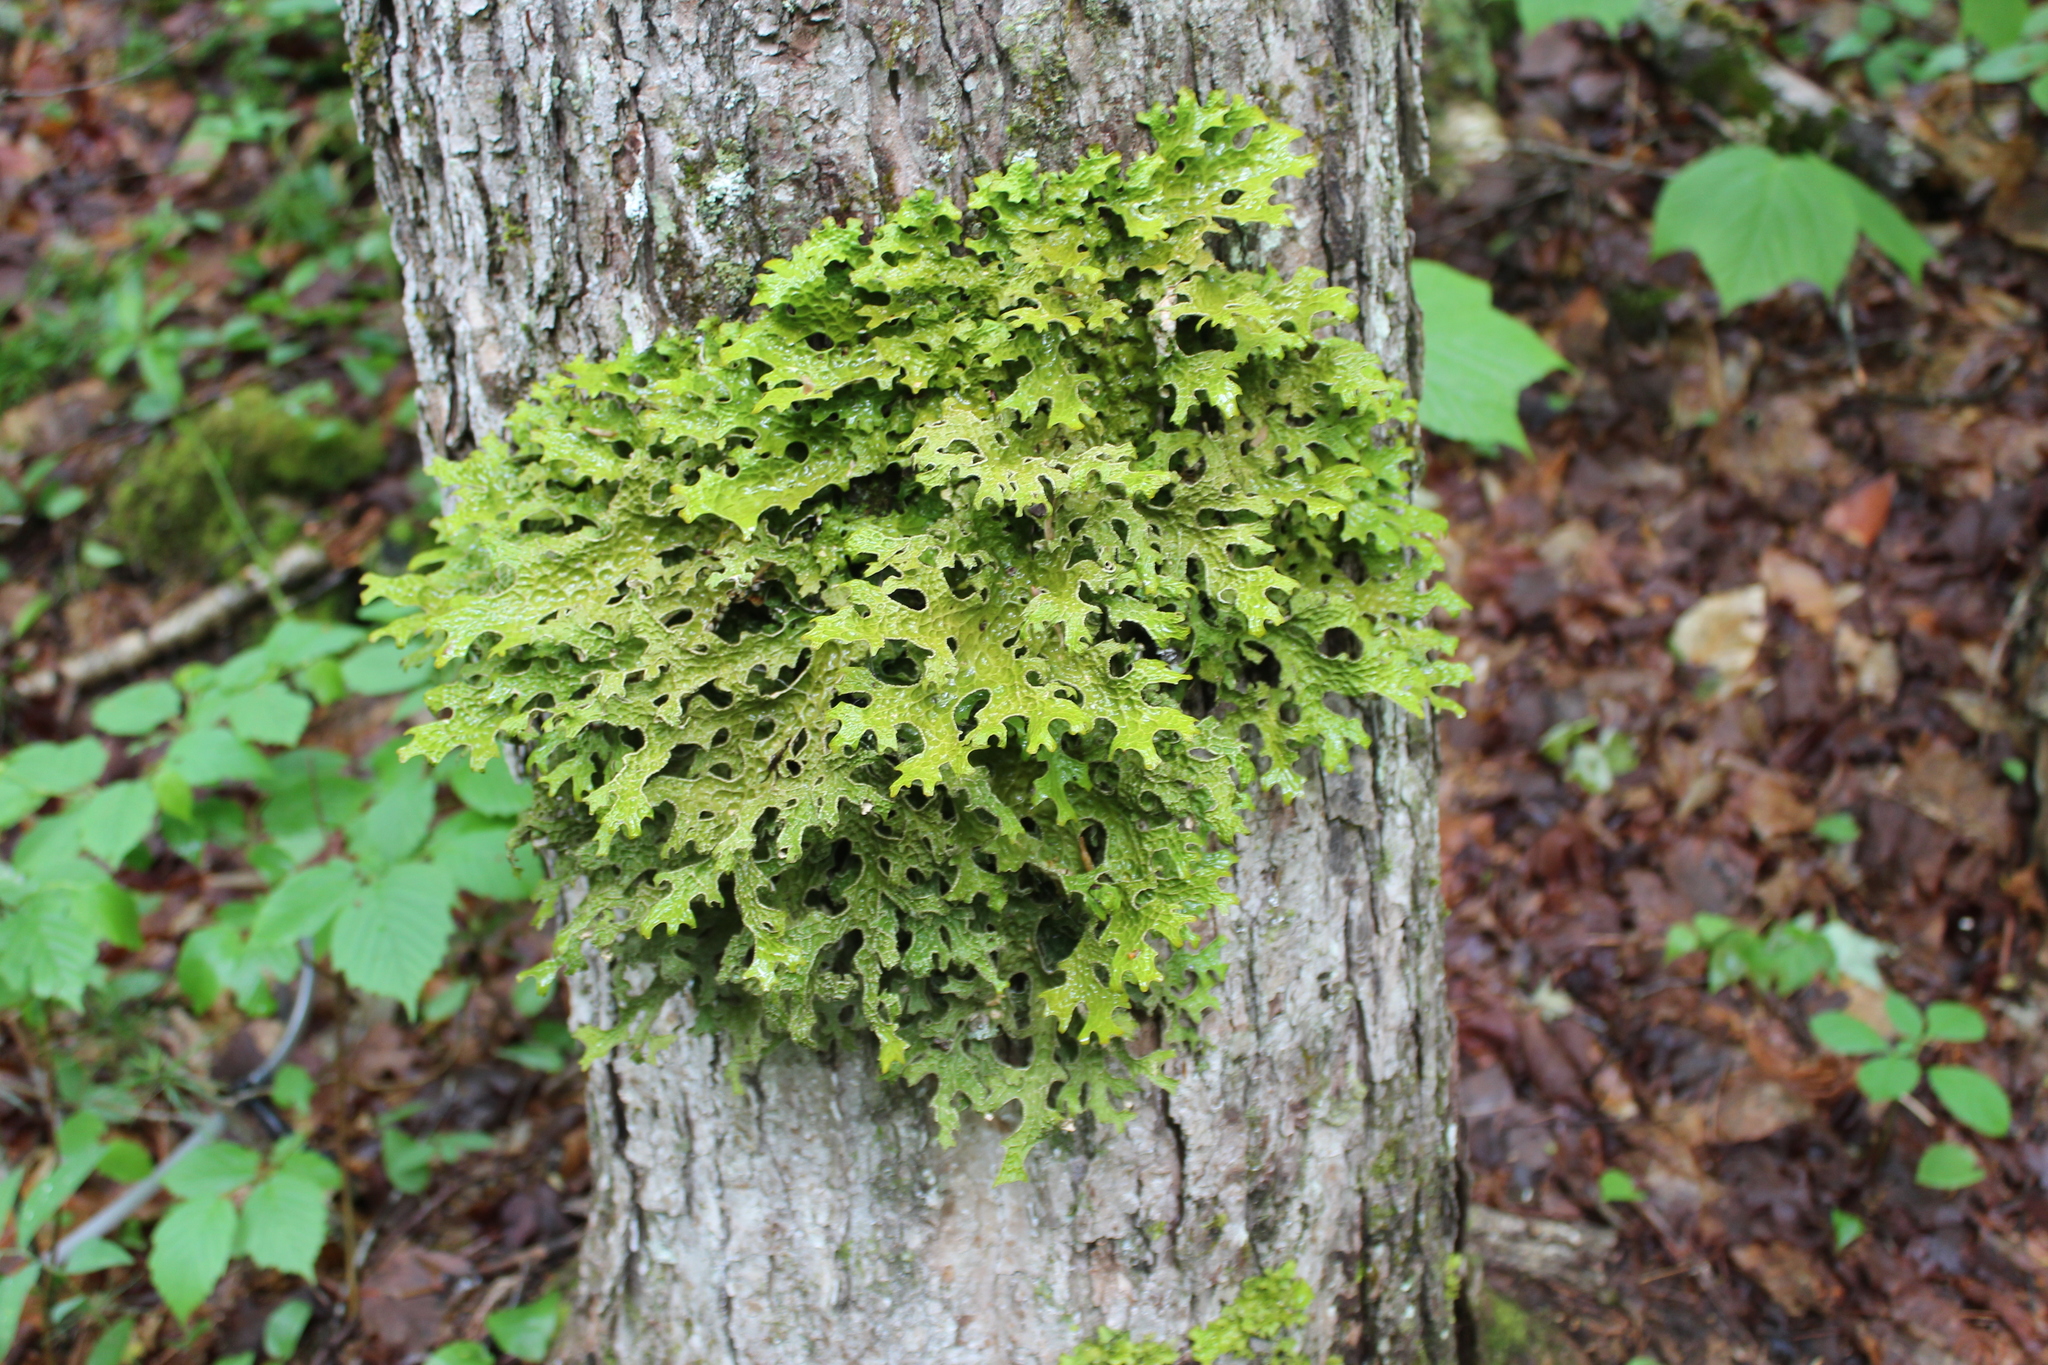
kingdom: Fungi
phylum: Ascomycota
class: Lecanoromycetes
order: Peltigerales
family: Lobariaceae
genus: Lobaria
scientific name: Lobaria pulmonaria
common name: Lungwort
